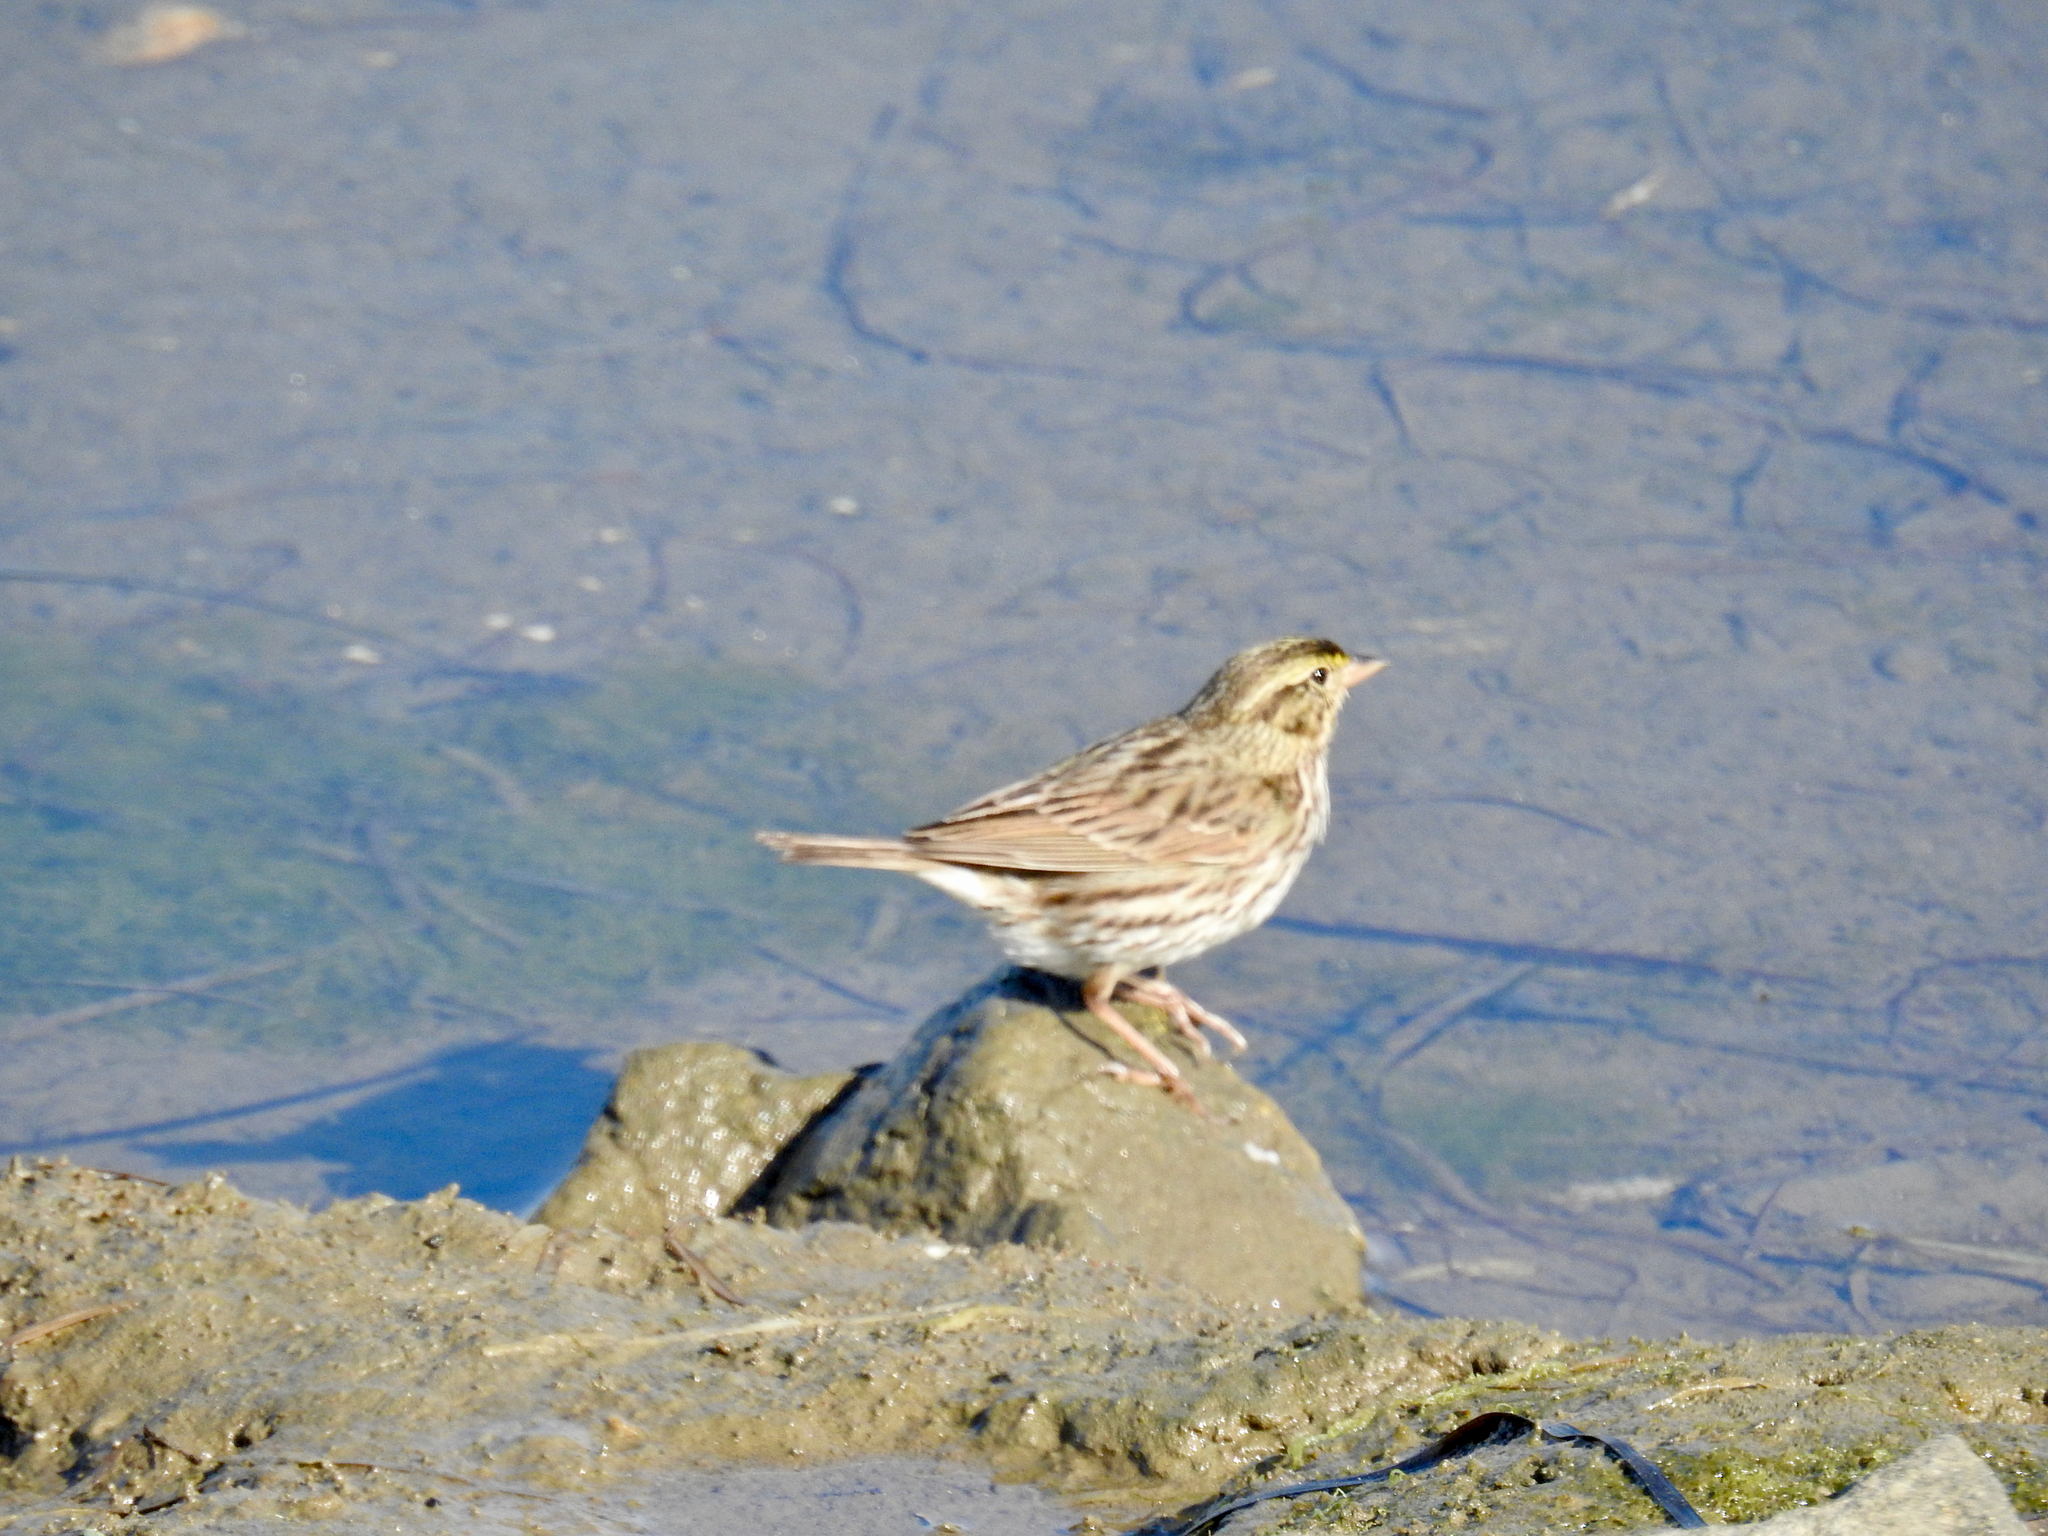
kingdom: Animalia
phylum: Chordata
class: Aves
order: Passeriformes
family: Passerellidae
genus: Passerculus
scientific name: Passerculus sandwichensis
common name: Savannah sparrow
